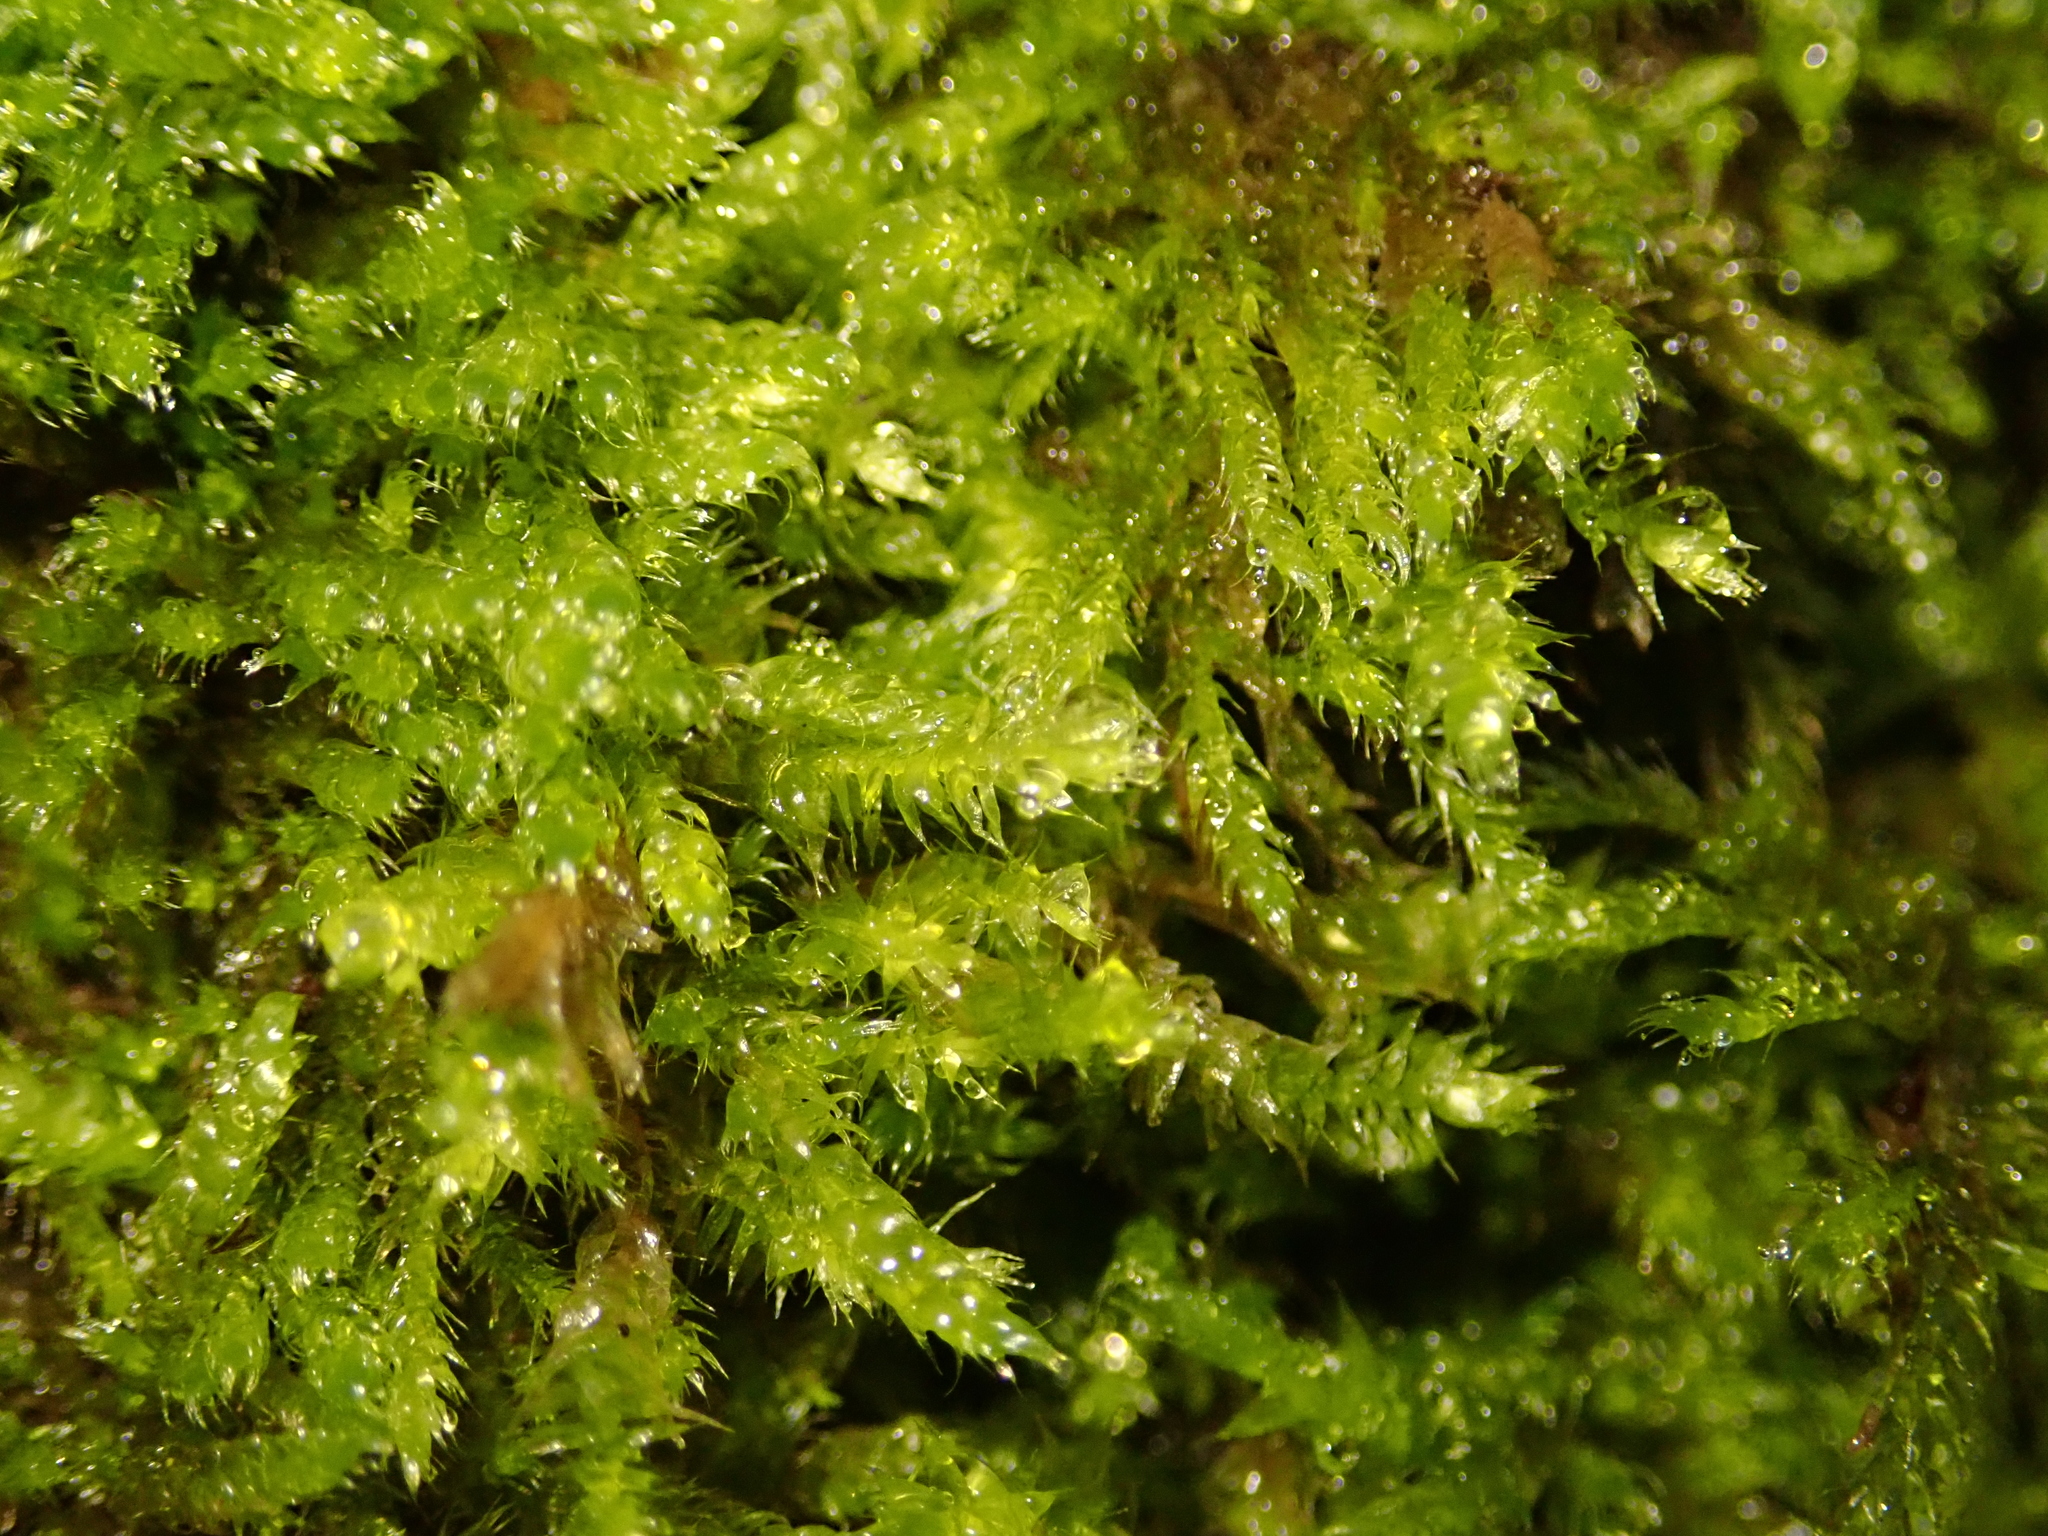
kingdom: Plantae
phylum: Bryophyta
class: Bryopsida
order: Hypnales
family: Hypnaceae
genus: Hypnum
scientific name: Hypnum cupressiforme
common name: Cypress-leaved plait-moss
